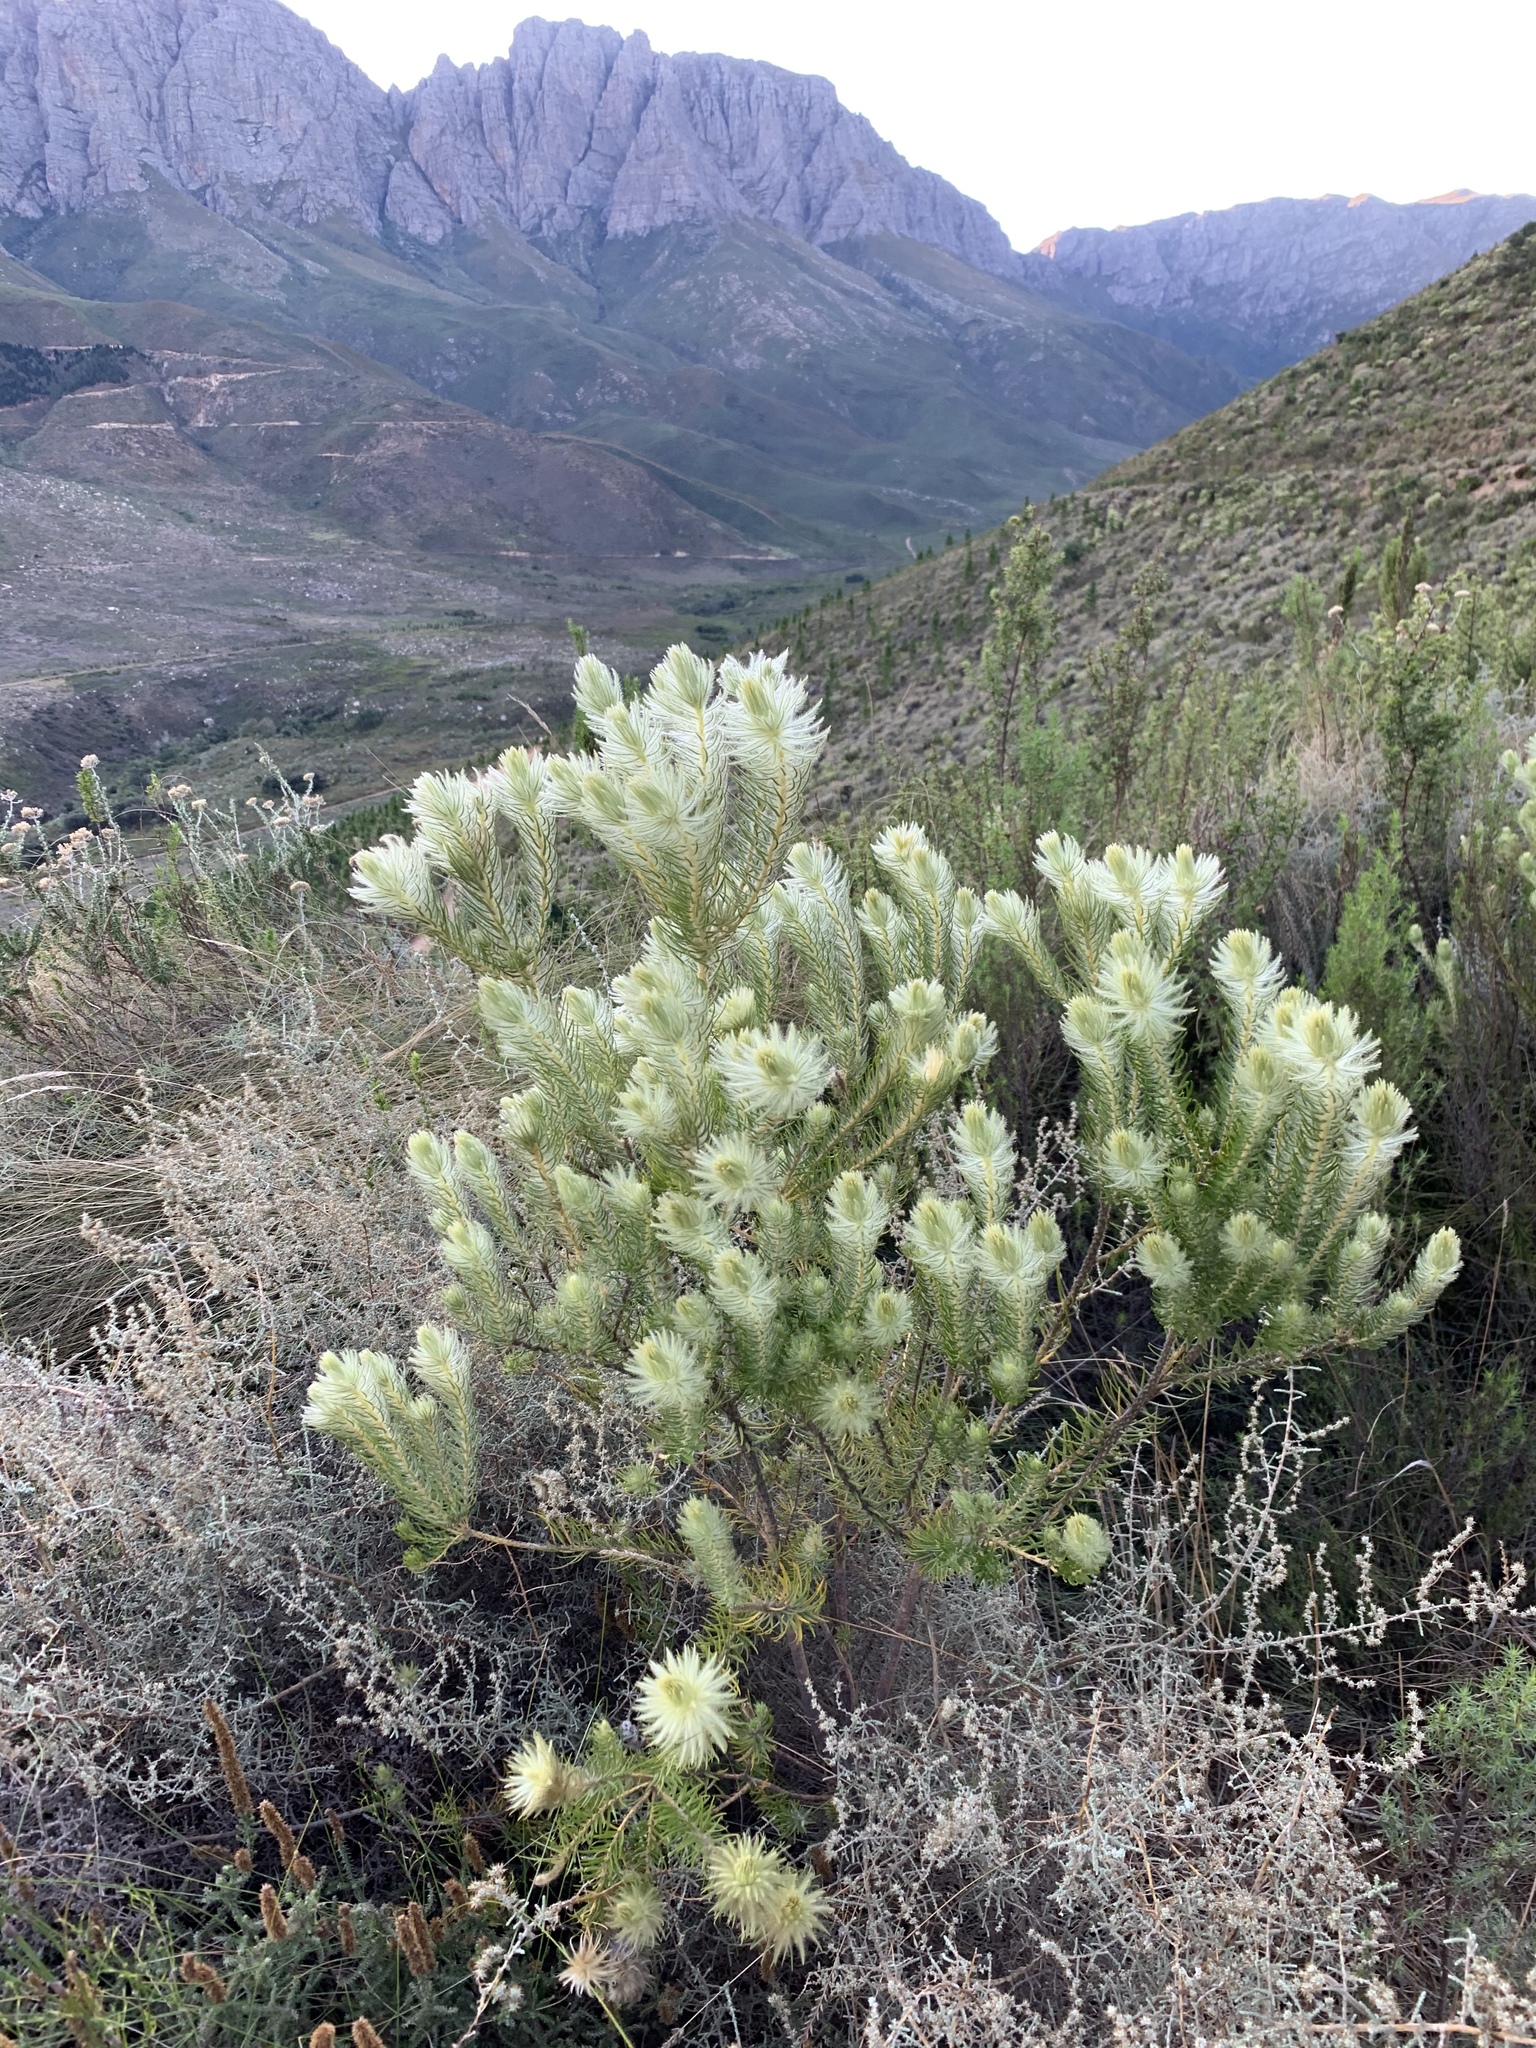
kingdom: Plantae
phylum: Tracheophyta
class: Magnoliopsida
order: Rosales
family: Rhamnaceae
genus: Phylica
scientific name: Phylica pubescens
